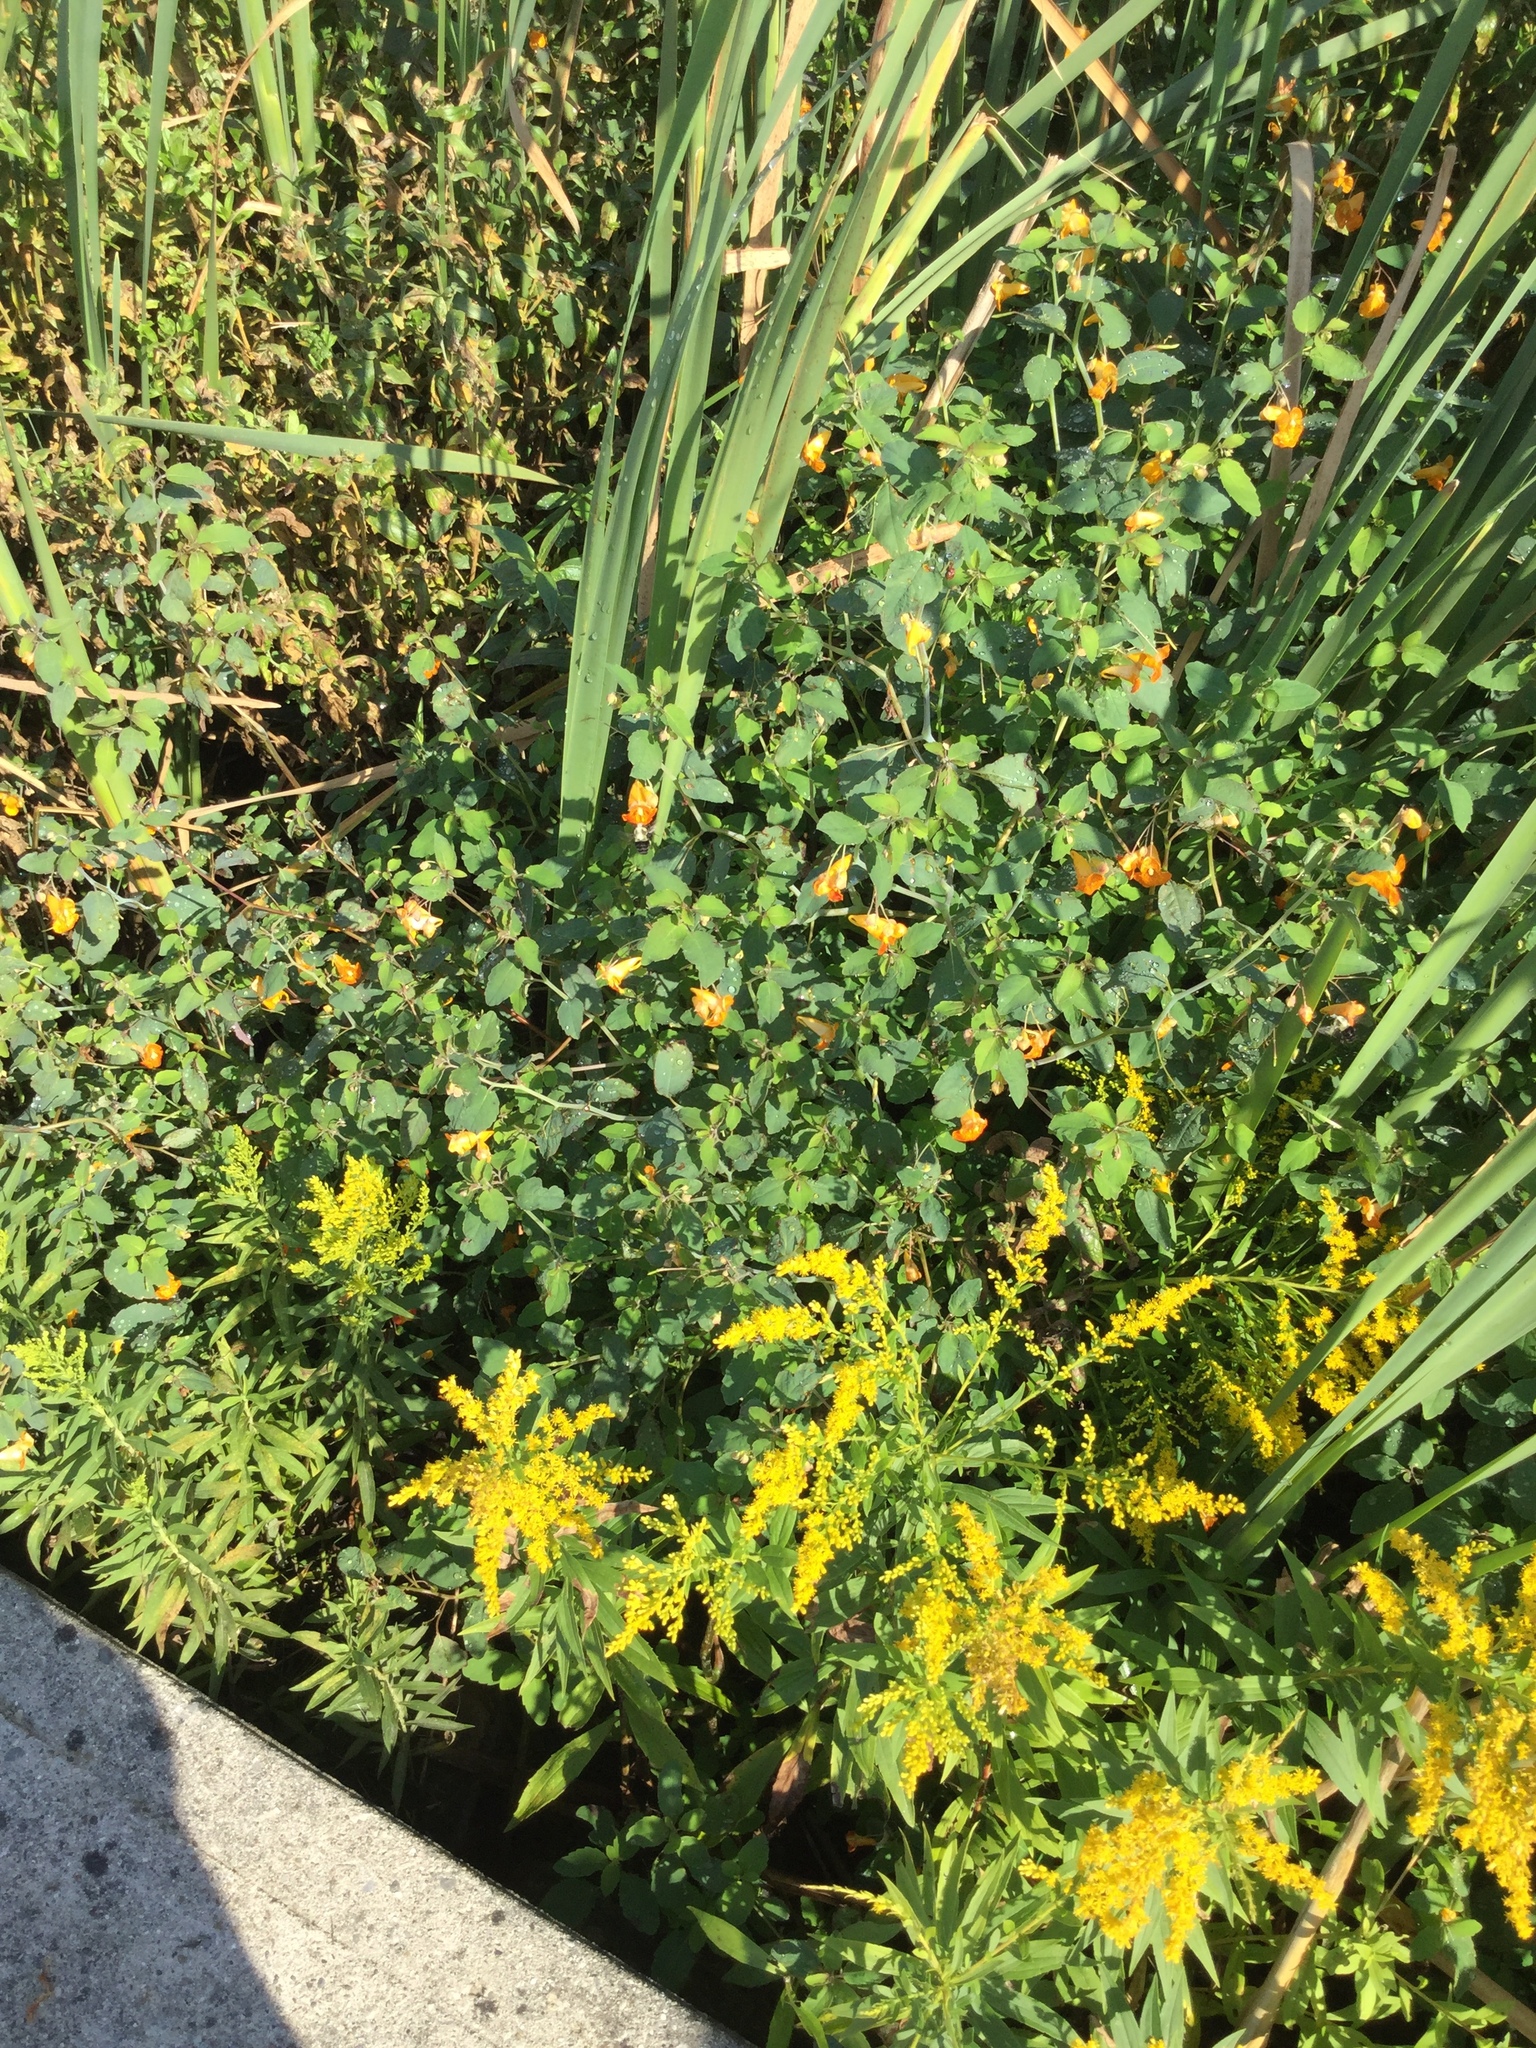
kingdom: Animalia
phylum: Arthropoda
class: Insecta
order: Hymenoptera
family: Apidae
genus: Bombus
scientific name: Bombus impatiens
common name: Common eastern bumble bee
